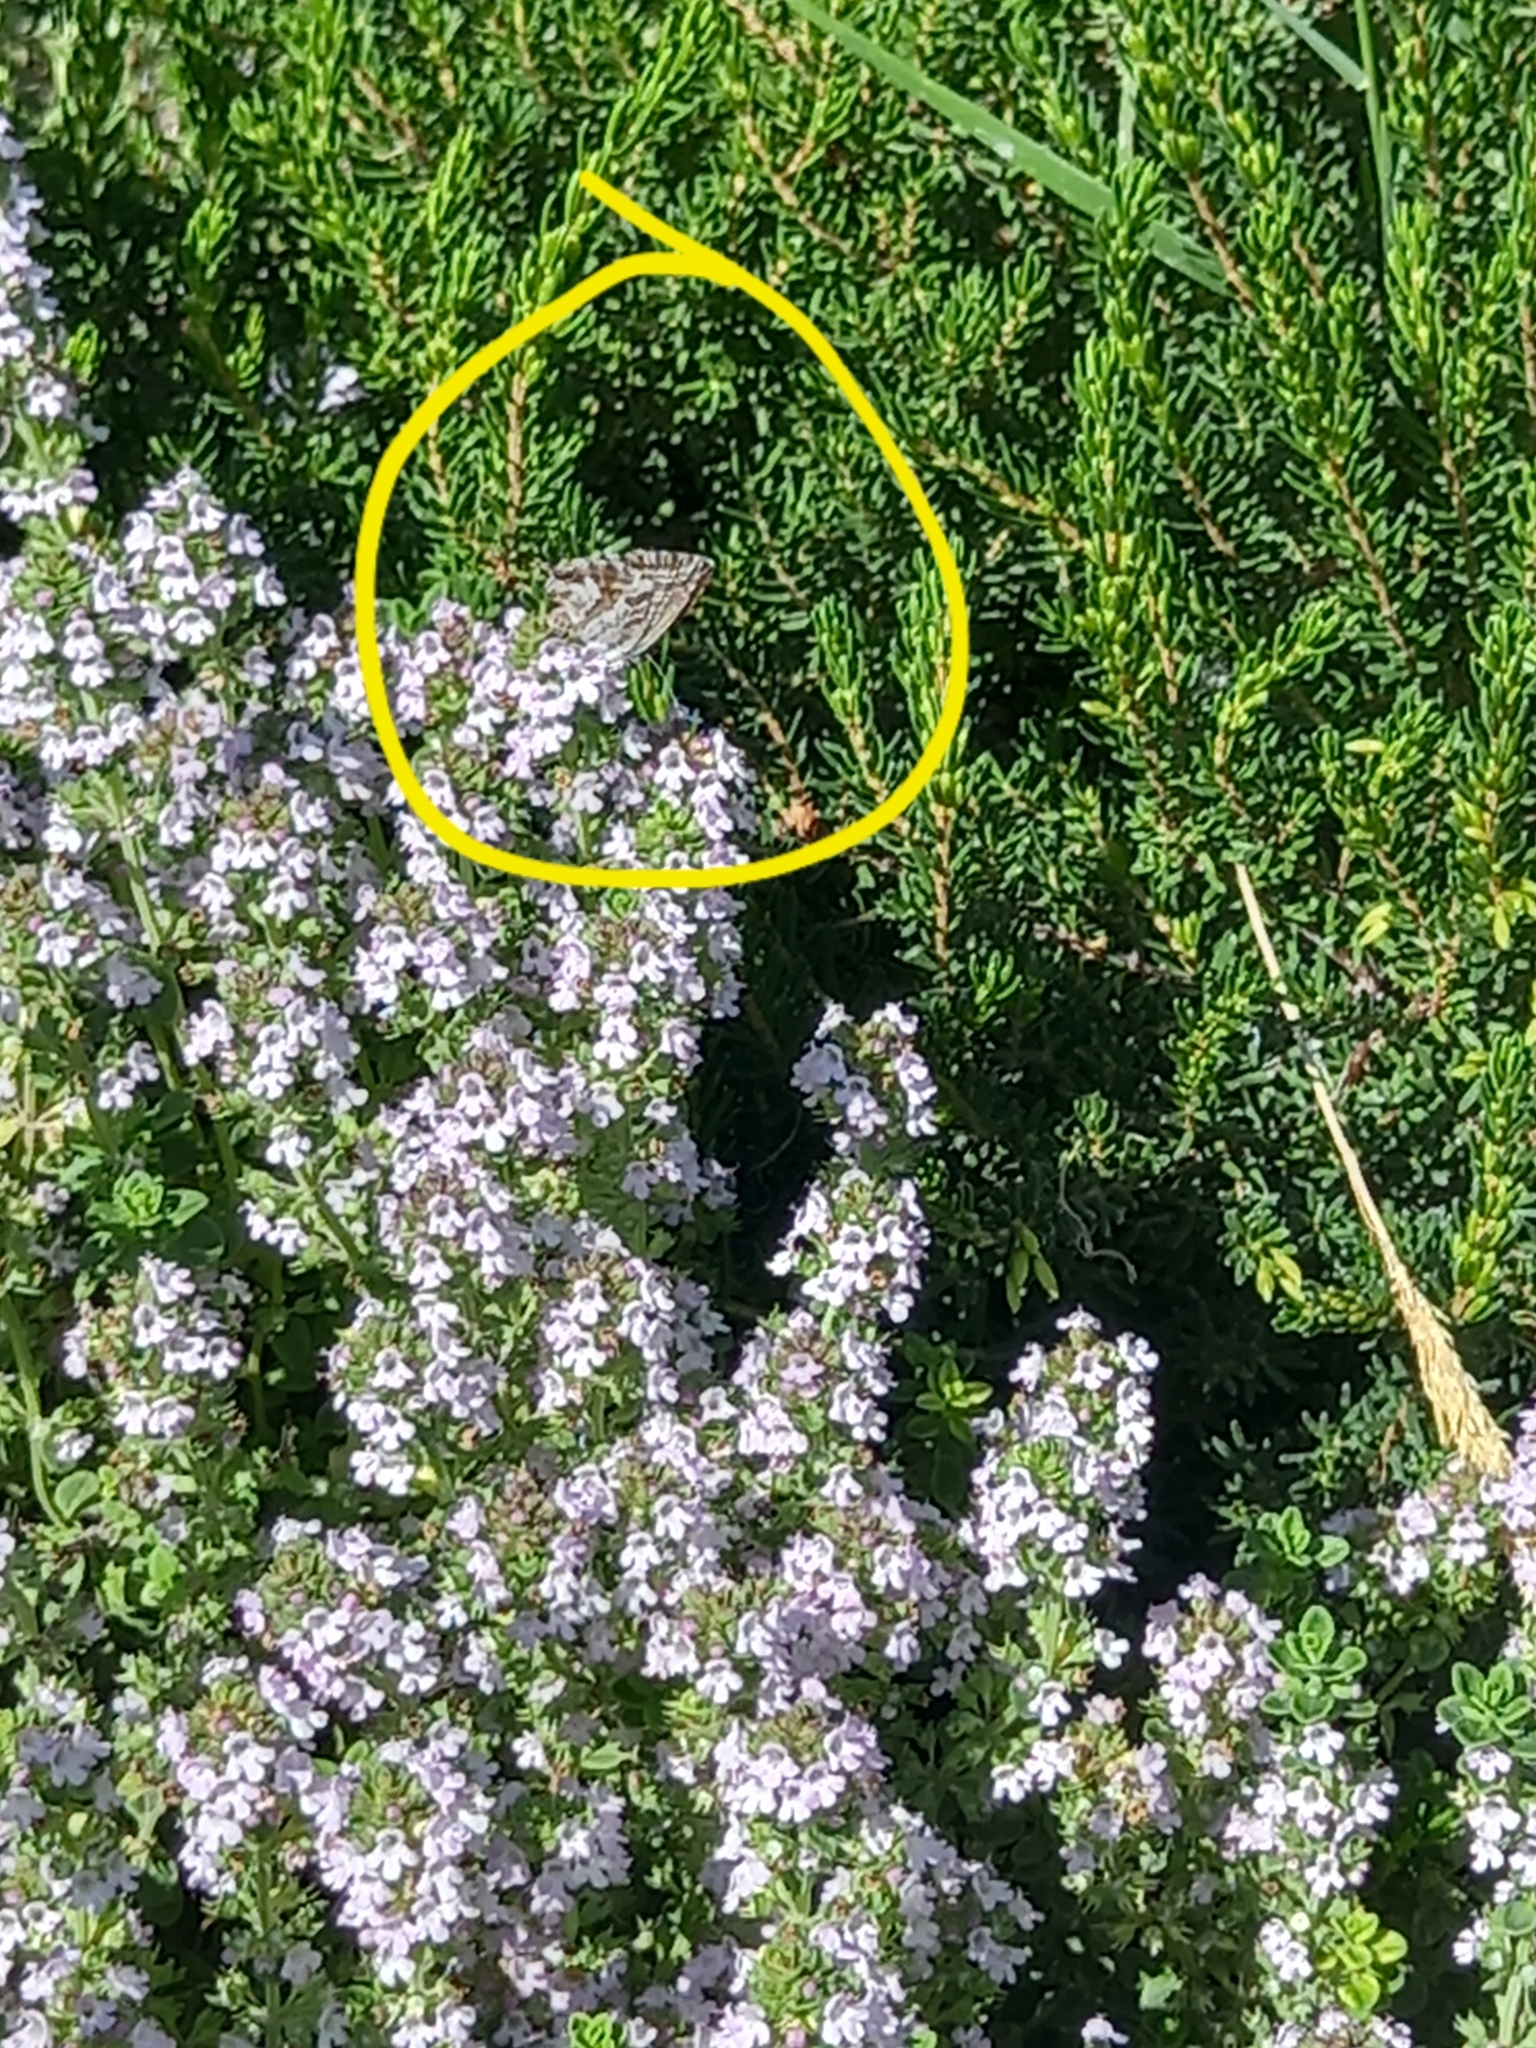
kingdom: Animalia
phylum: Arthropoda
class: Insecta
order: Lepidoptera
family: Lycaenidae
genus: Cacyreus
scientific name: Cacyreus marshalli
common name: Geranium bronze
